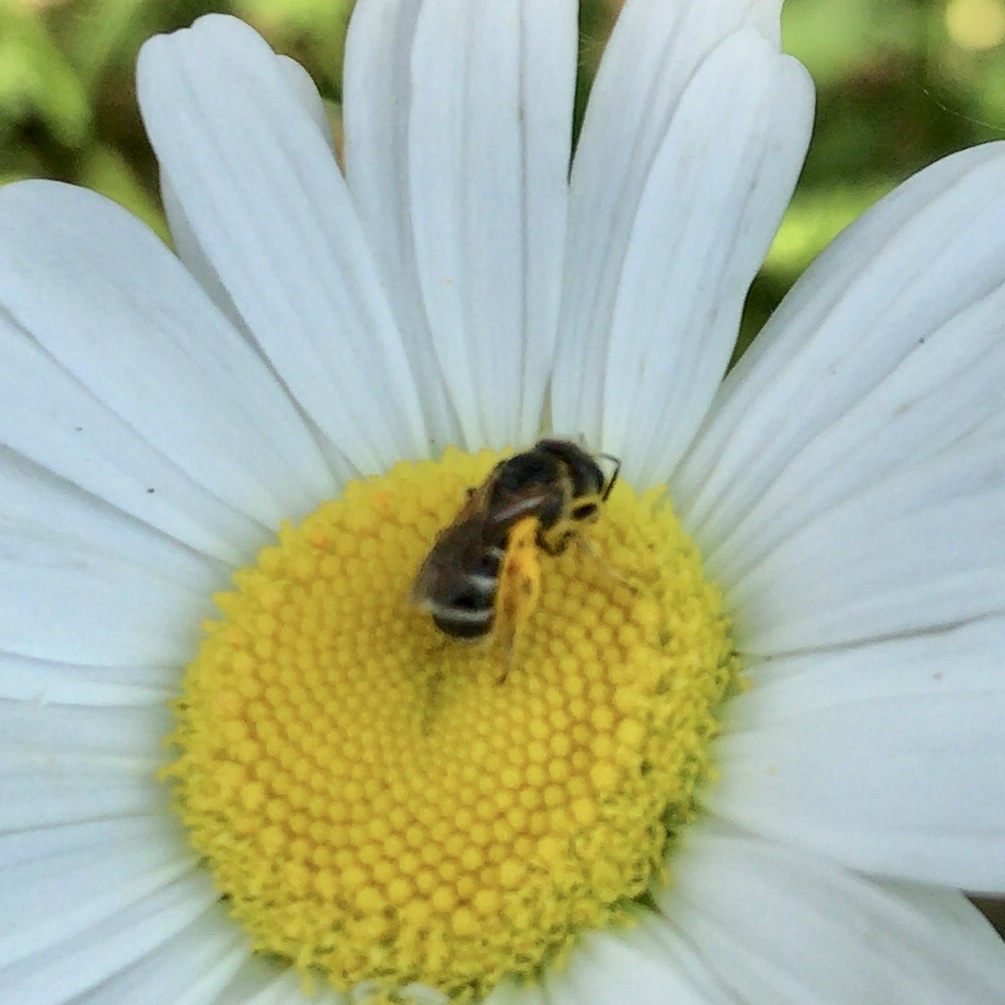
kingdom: Animalia
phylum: Arthropoda
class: Insecta
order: Hymenoptera
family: Halictidae
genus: Halictus
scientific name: Halictus ligatus
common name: Ligated furrow bee
